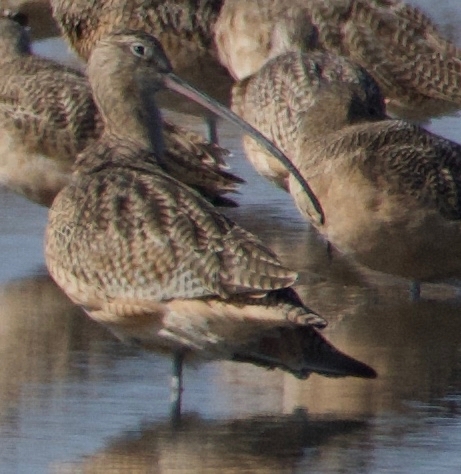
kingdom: Animalia
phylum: Chordata
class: Aves
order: Charadriiformes
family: Scolopacidae
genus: Numenius
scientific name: Numenius americanus
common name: Long-billed curlew
